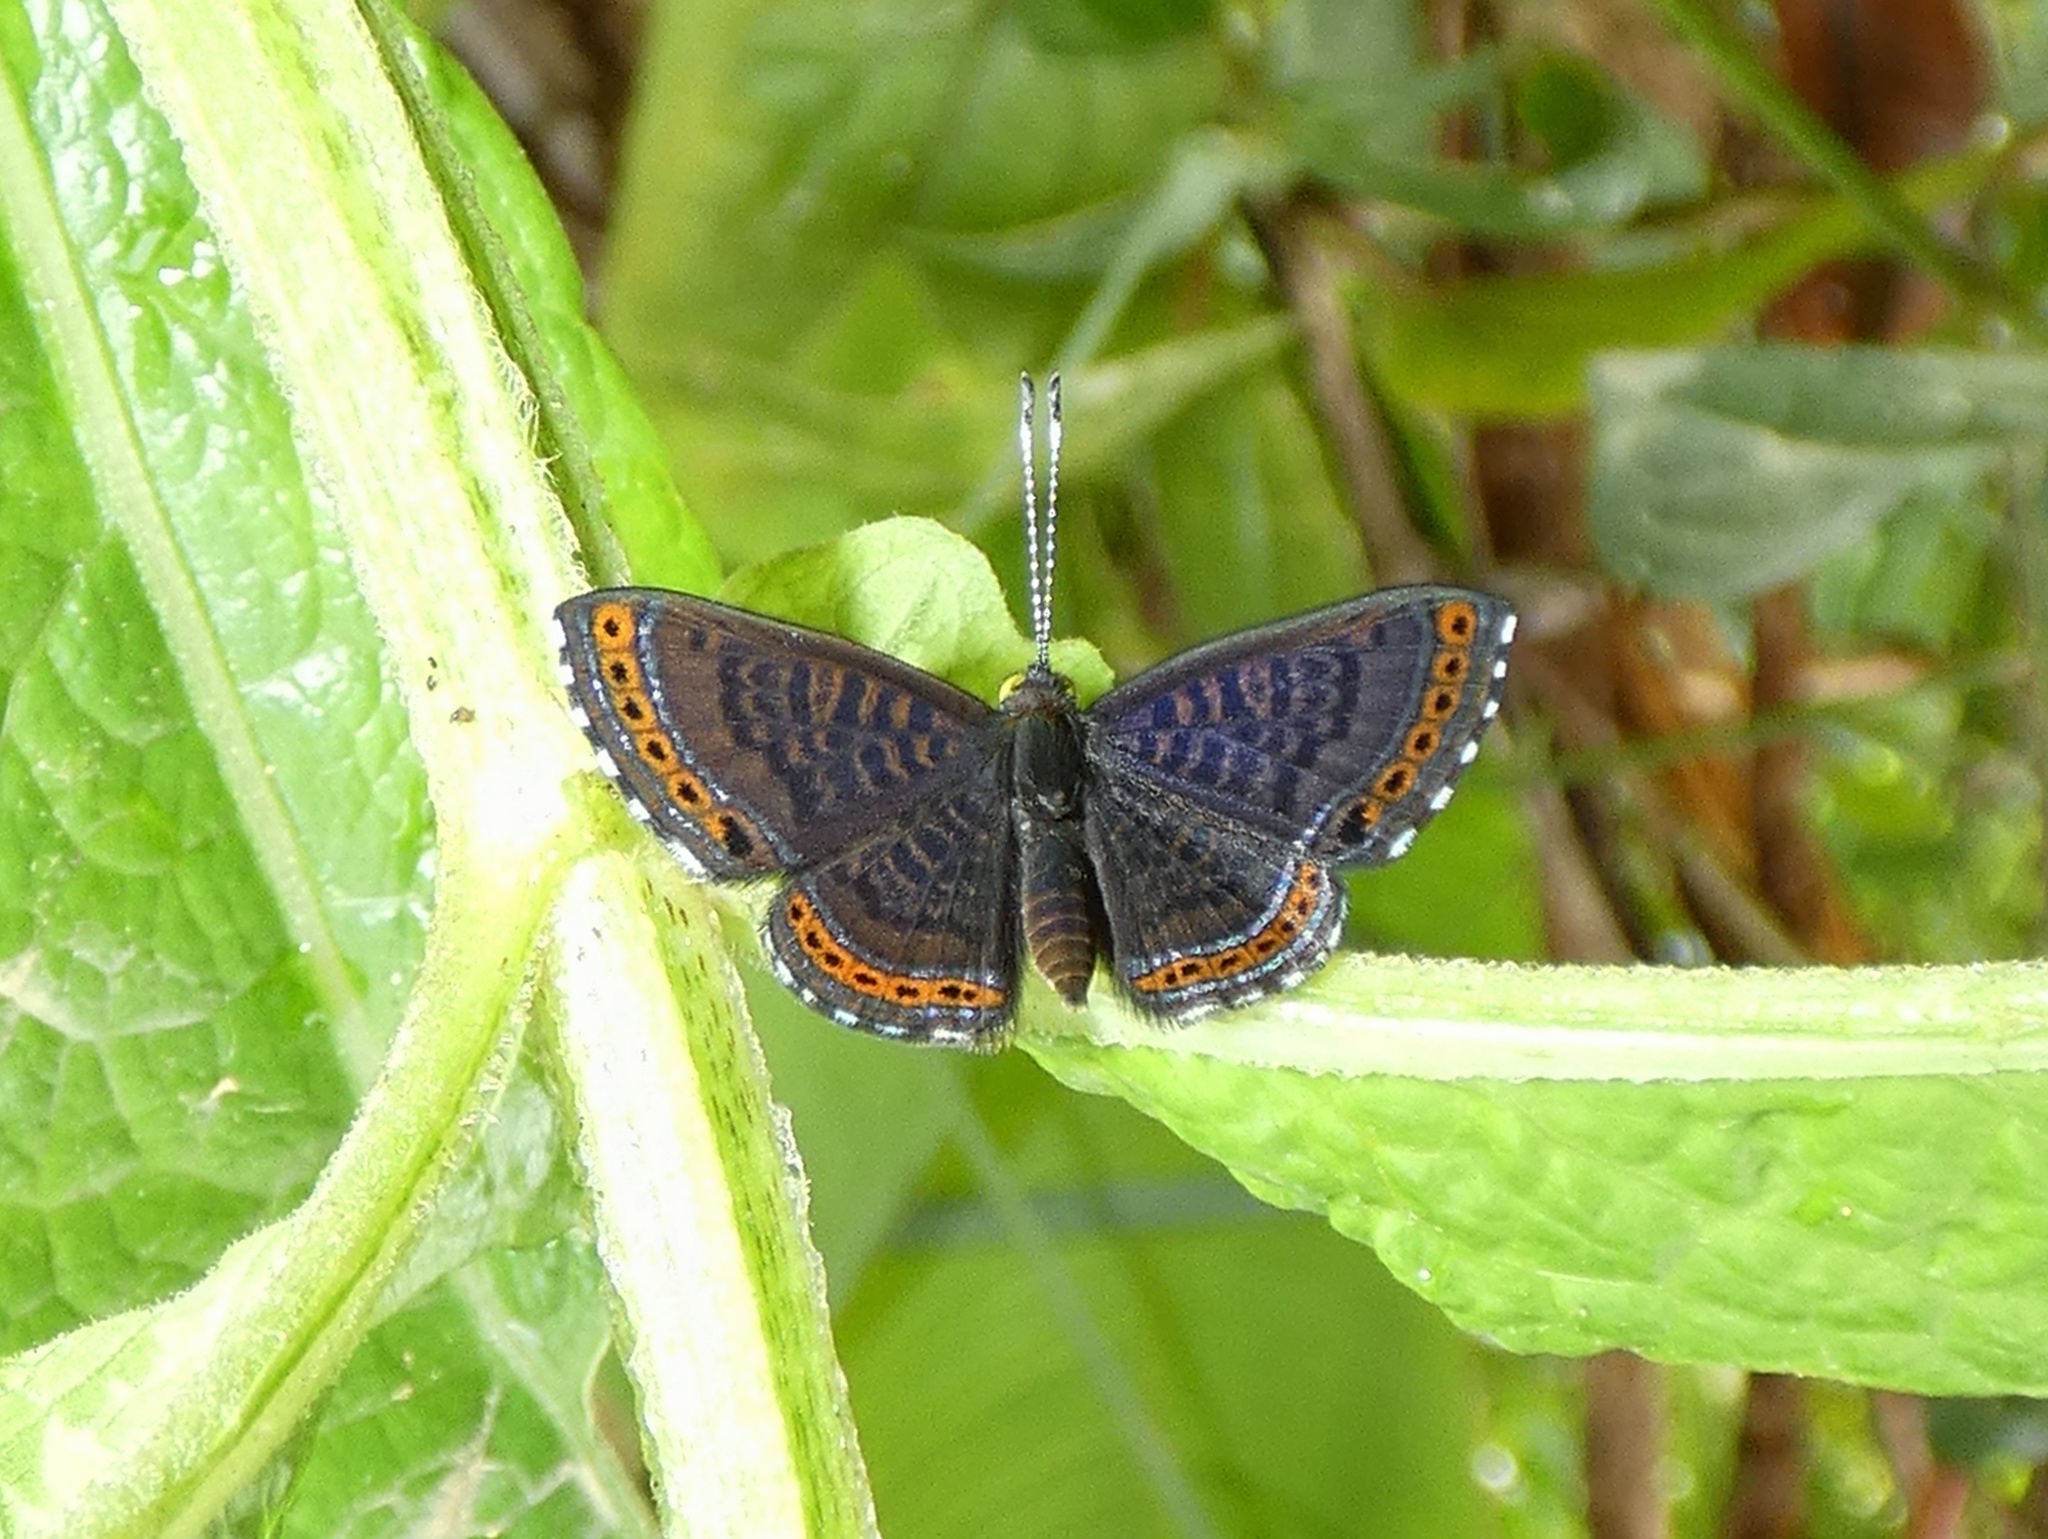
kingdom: Animalia
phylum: Arthropoda
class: Insecta
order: Lepidoptera
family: Riodinidae
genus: Detritivora
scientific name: Detritivora
